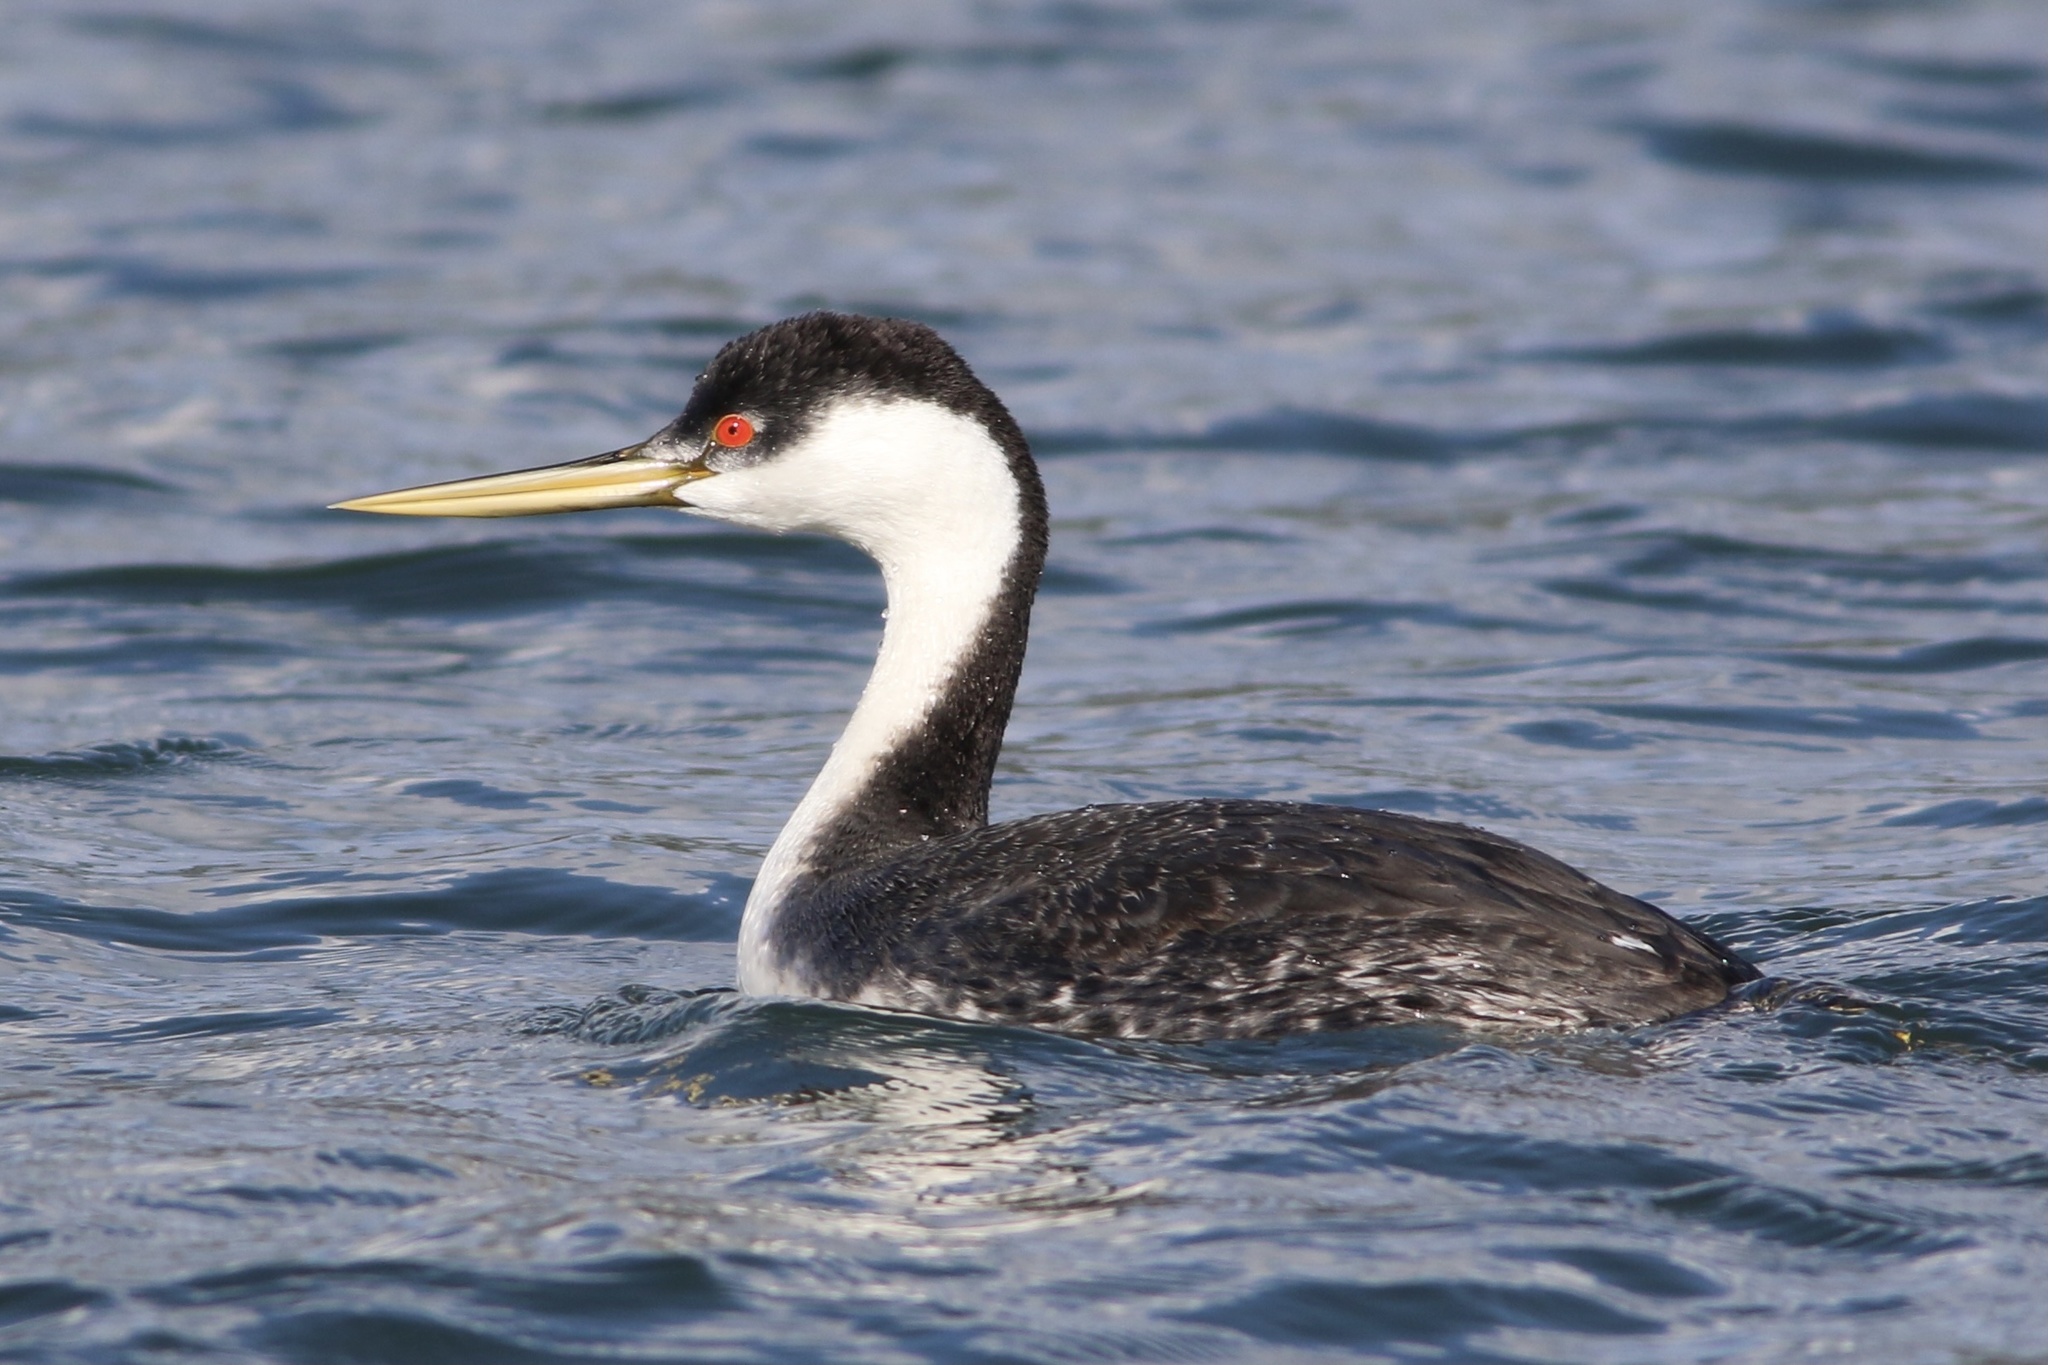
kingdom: Animalia
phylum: Chordata
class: Aves
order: Podicipediformes
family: Podicipedidae
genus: Aechmophorus
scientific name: Aechmophorus occidentalis
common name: Western grebe
